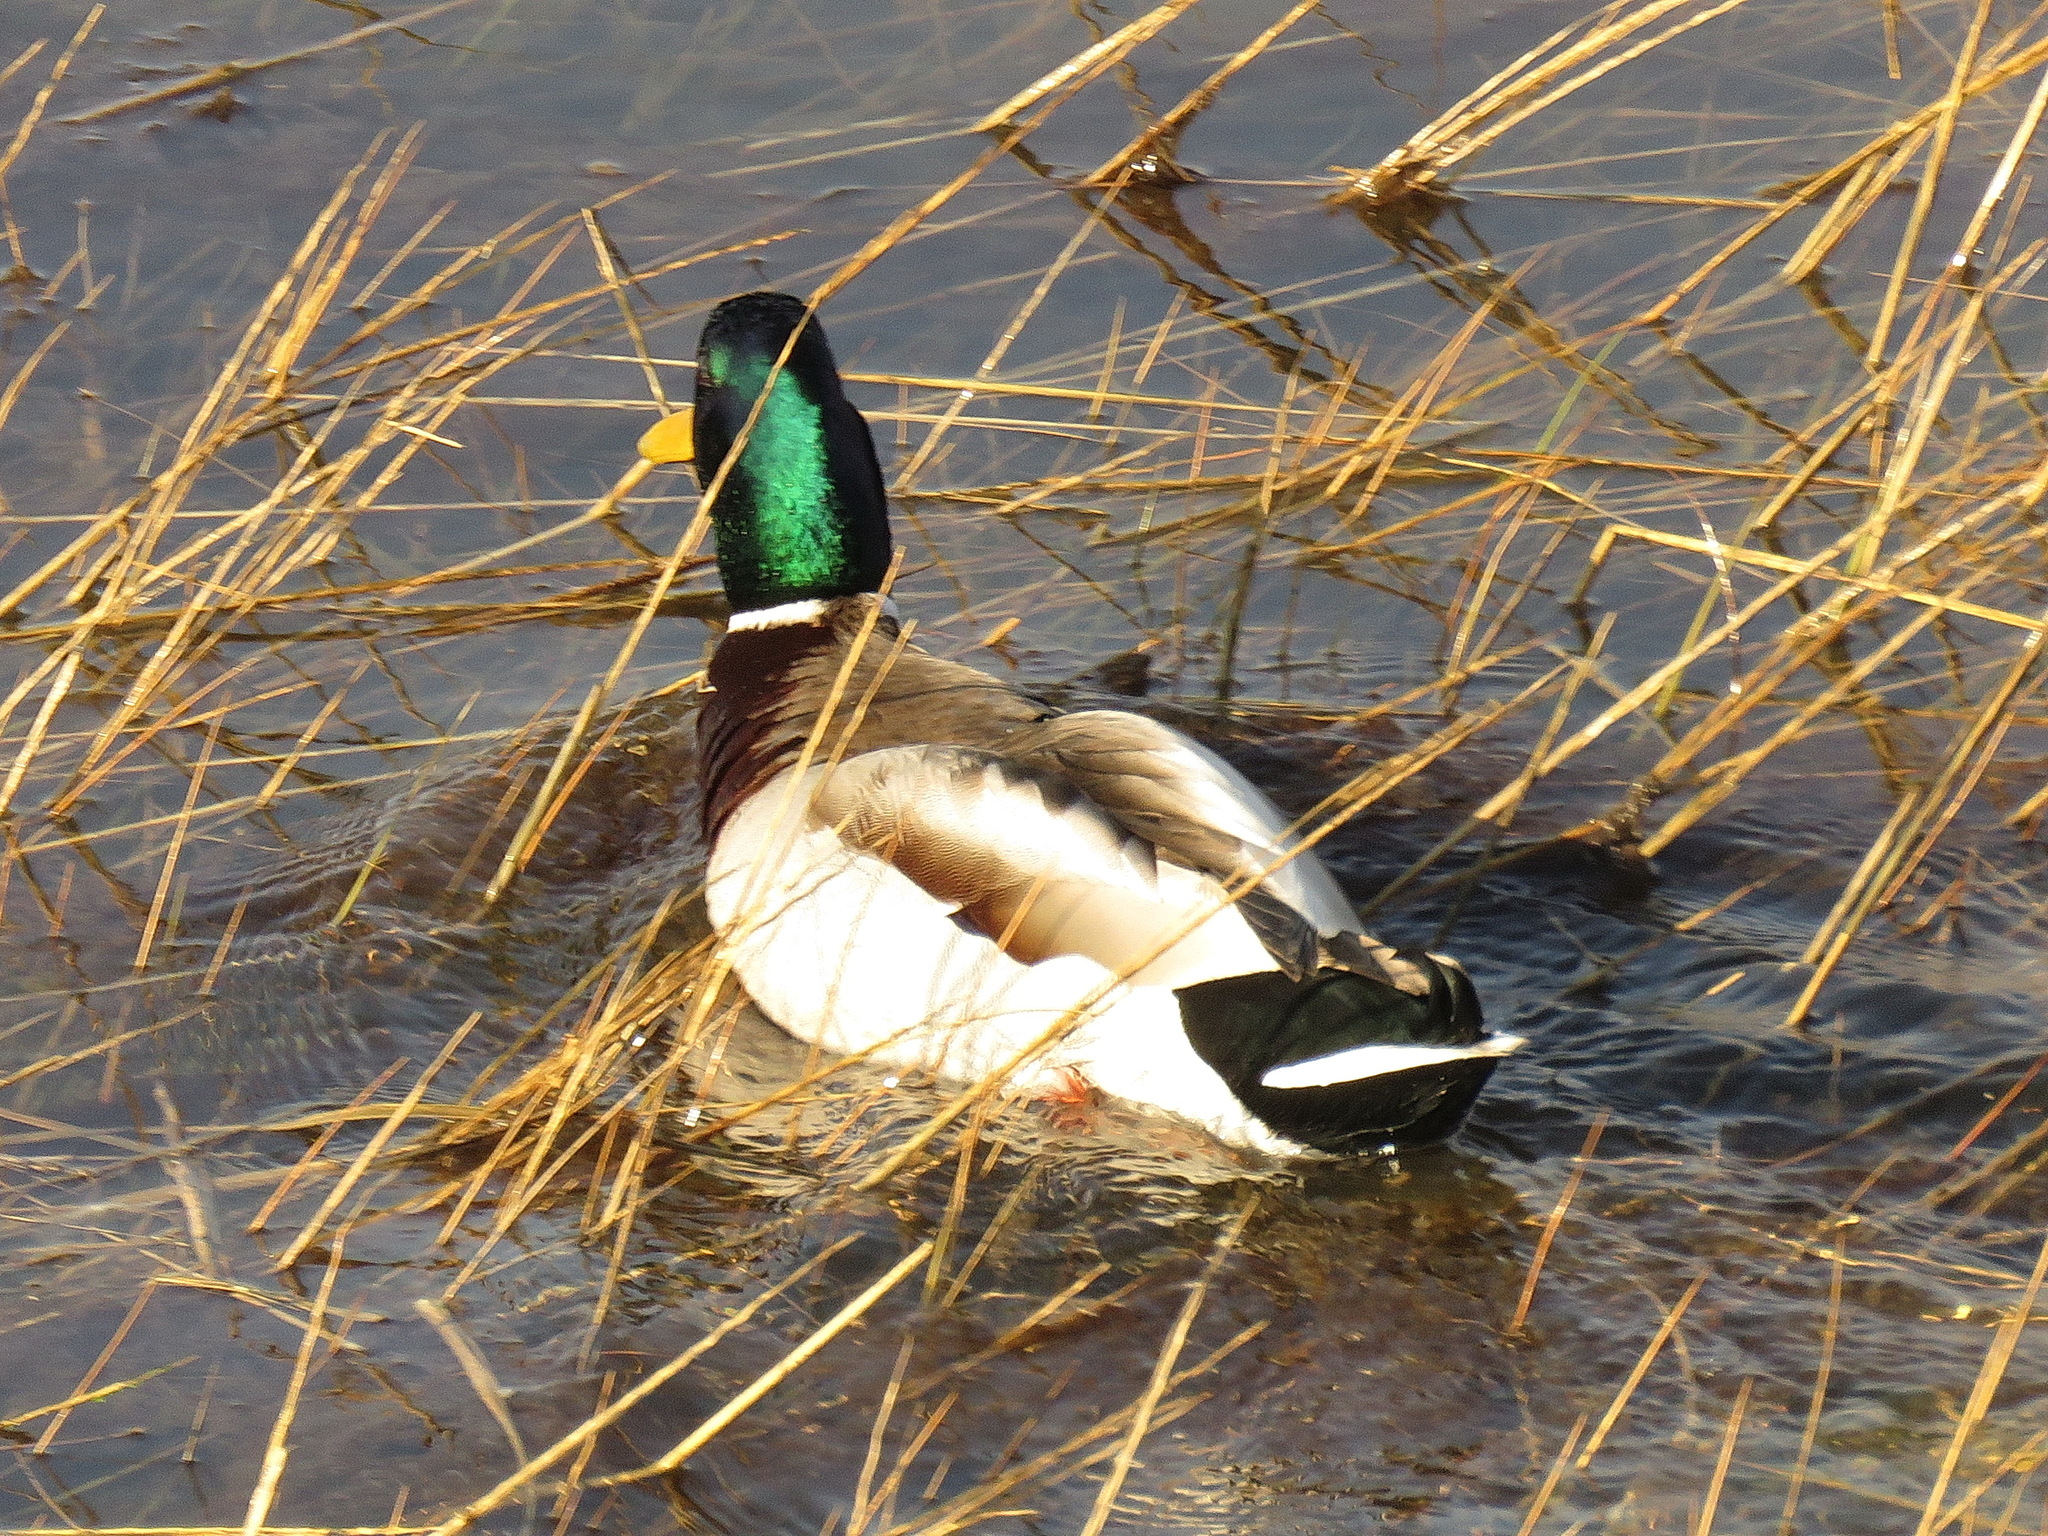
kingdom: Animalia
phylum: Chordata
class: Aves
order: Anseriformes
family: Anatidae
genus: Anas
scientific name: Anas platyrhynchos
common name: Mallard
